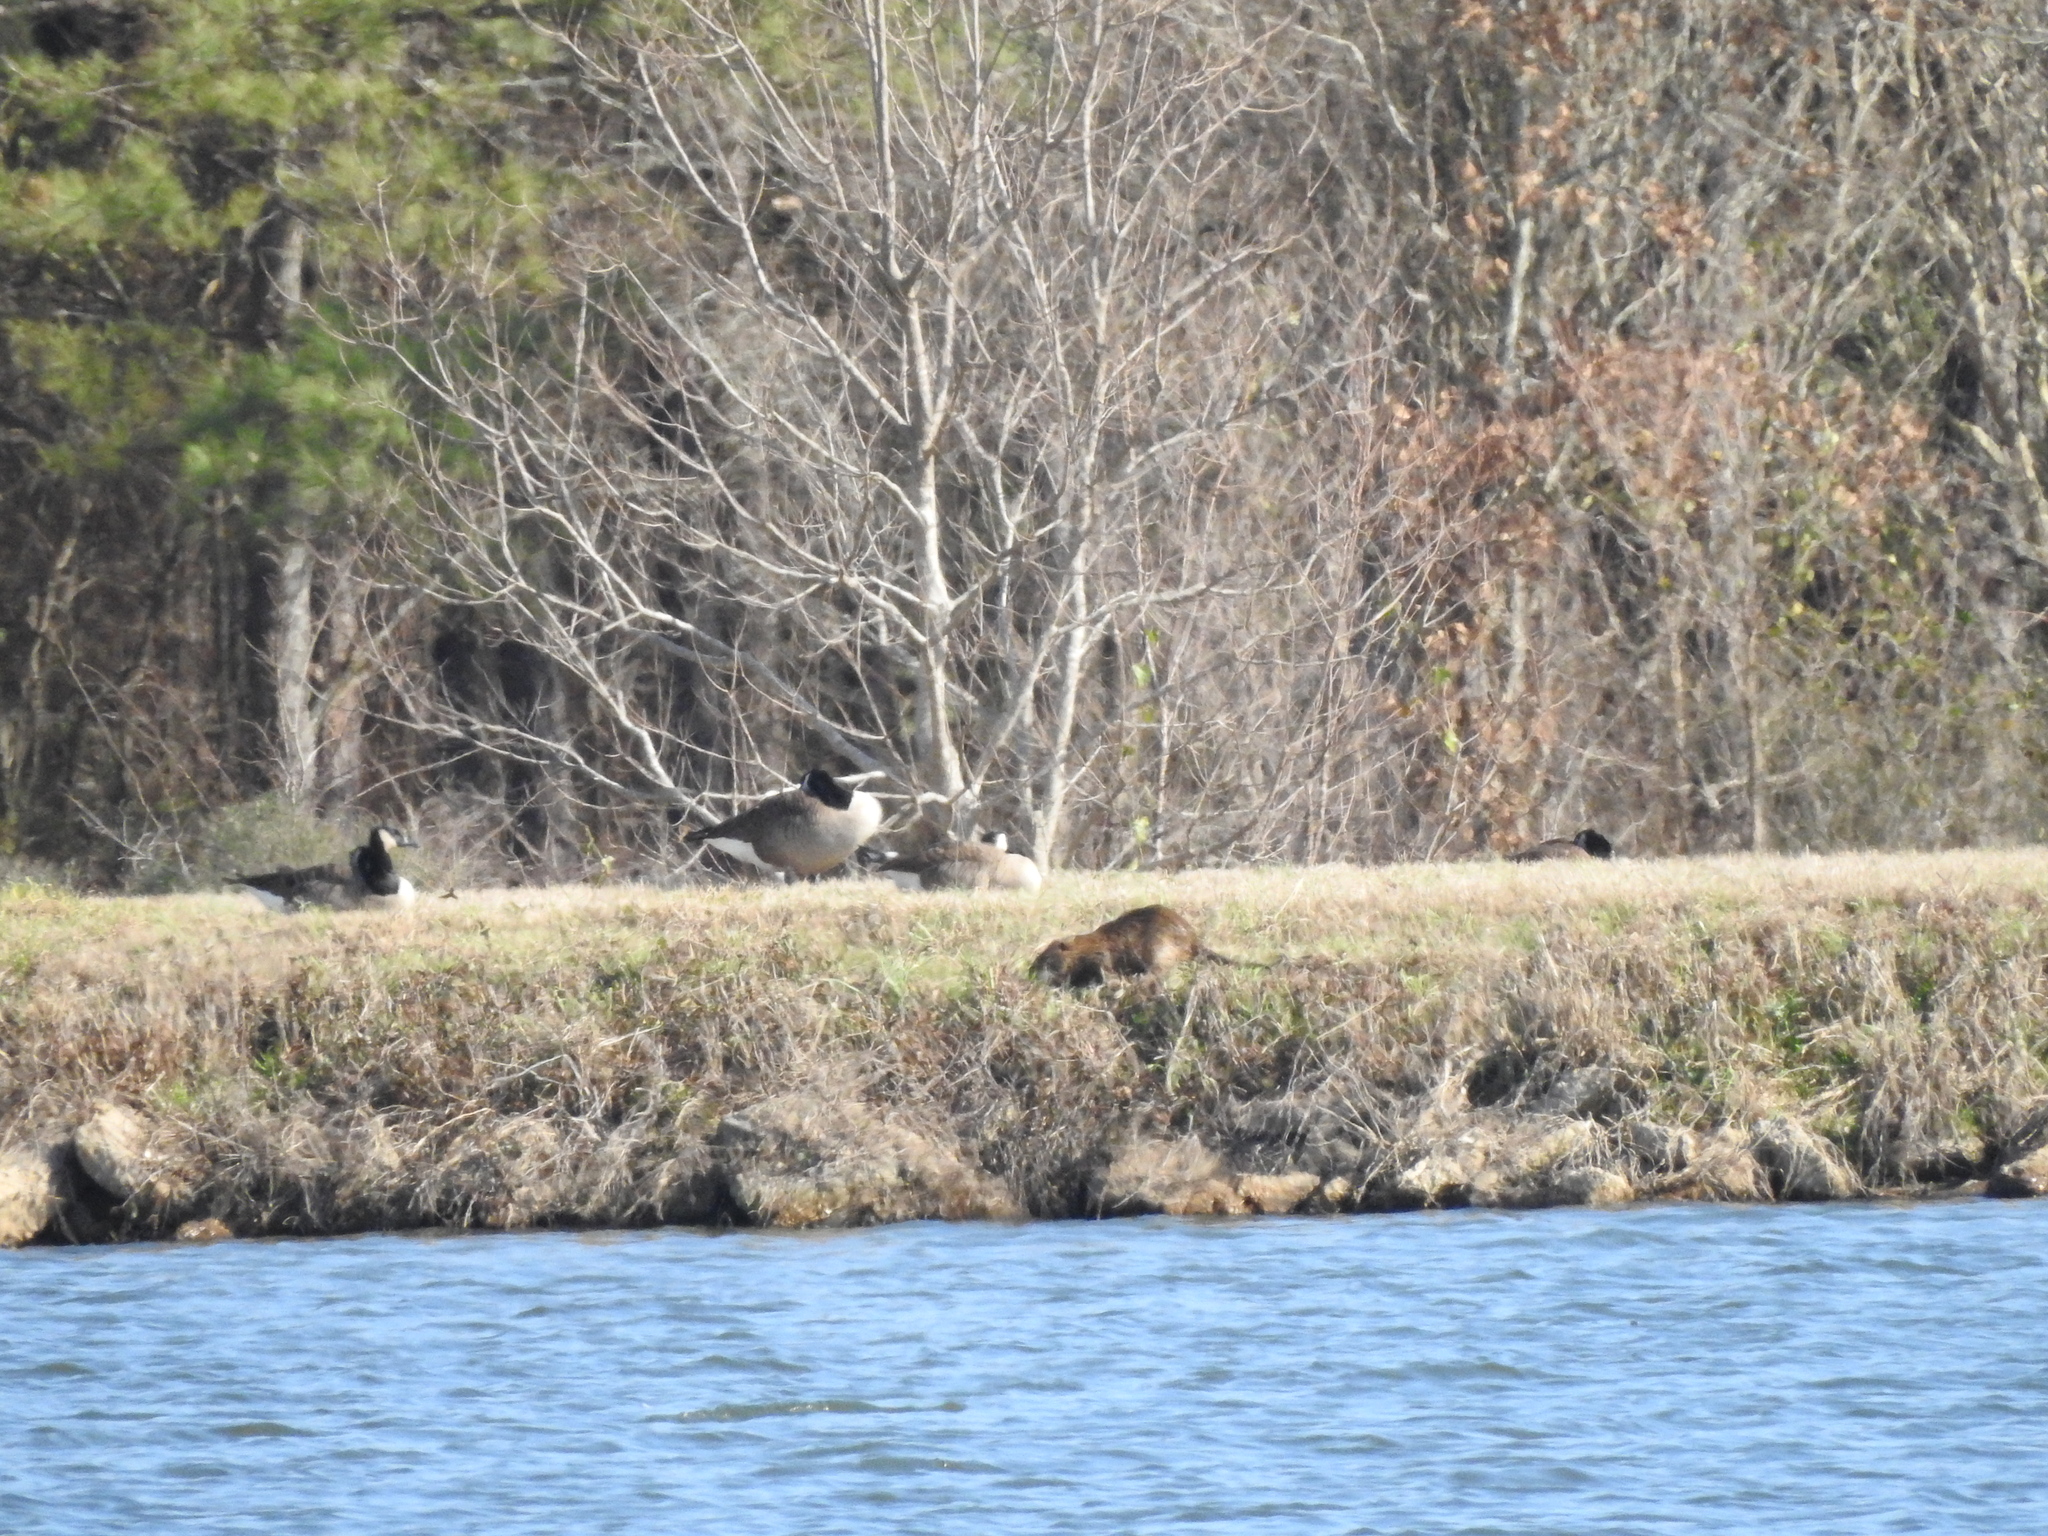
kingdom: Animalia
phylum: Chordata
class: Mammalia
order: Rodentia
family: Myocastoridae
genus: Myocastor
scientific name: Myocastor coypus
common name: Coypu
